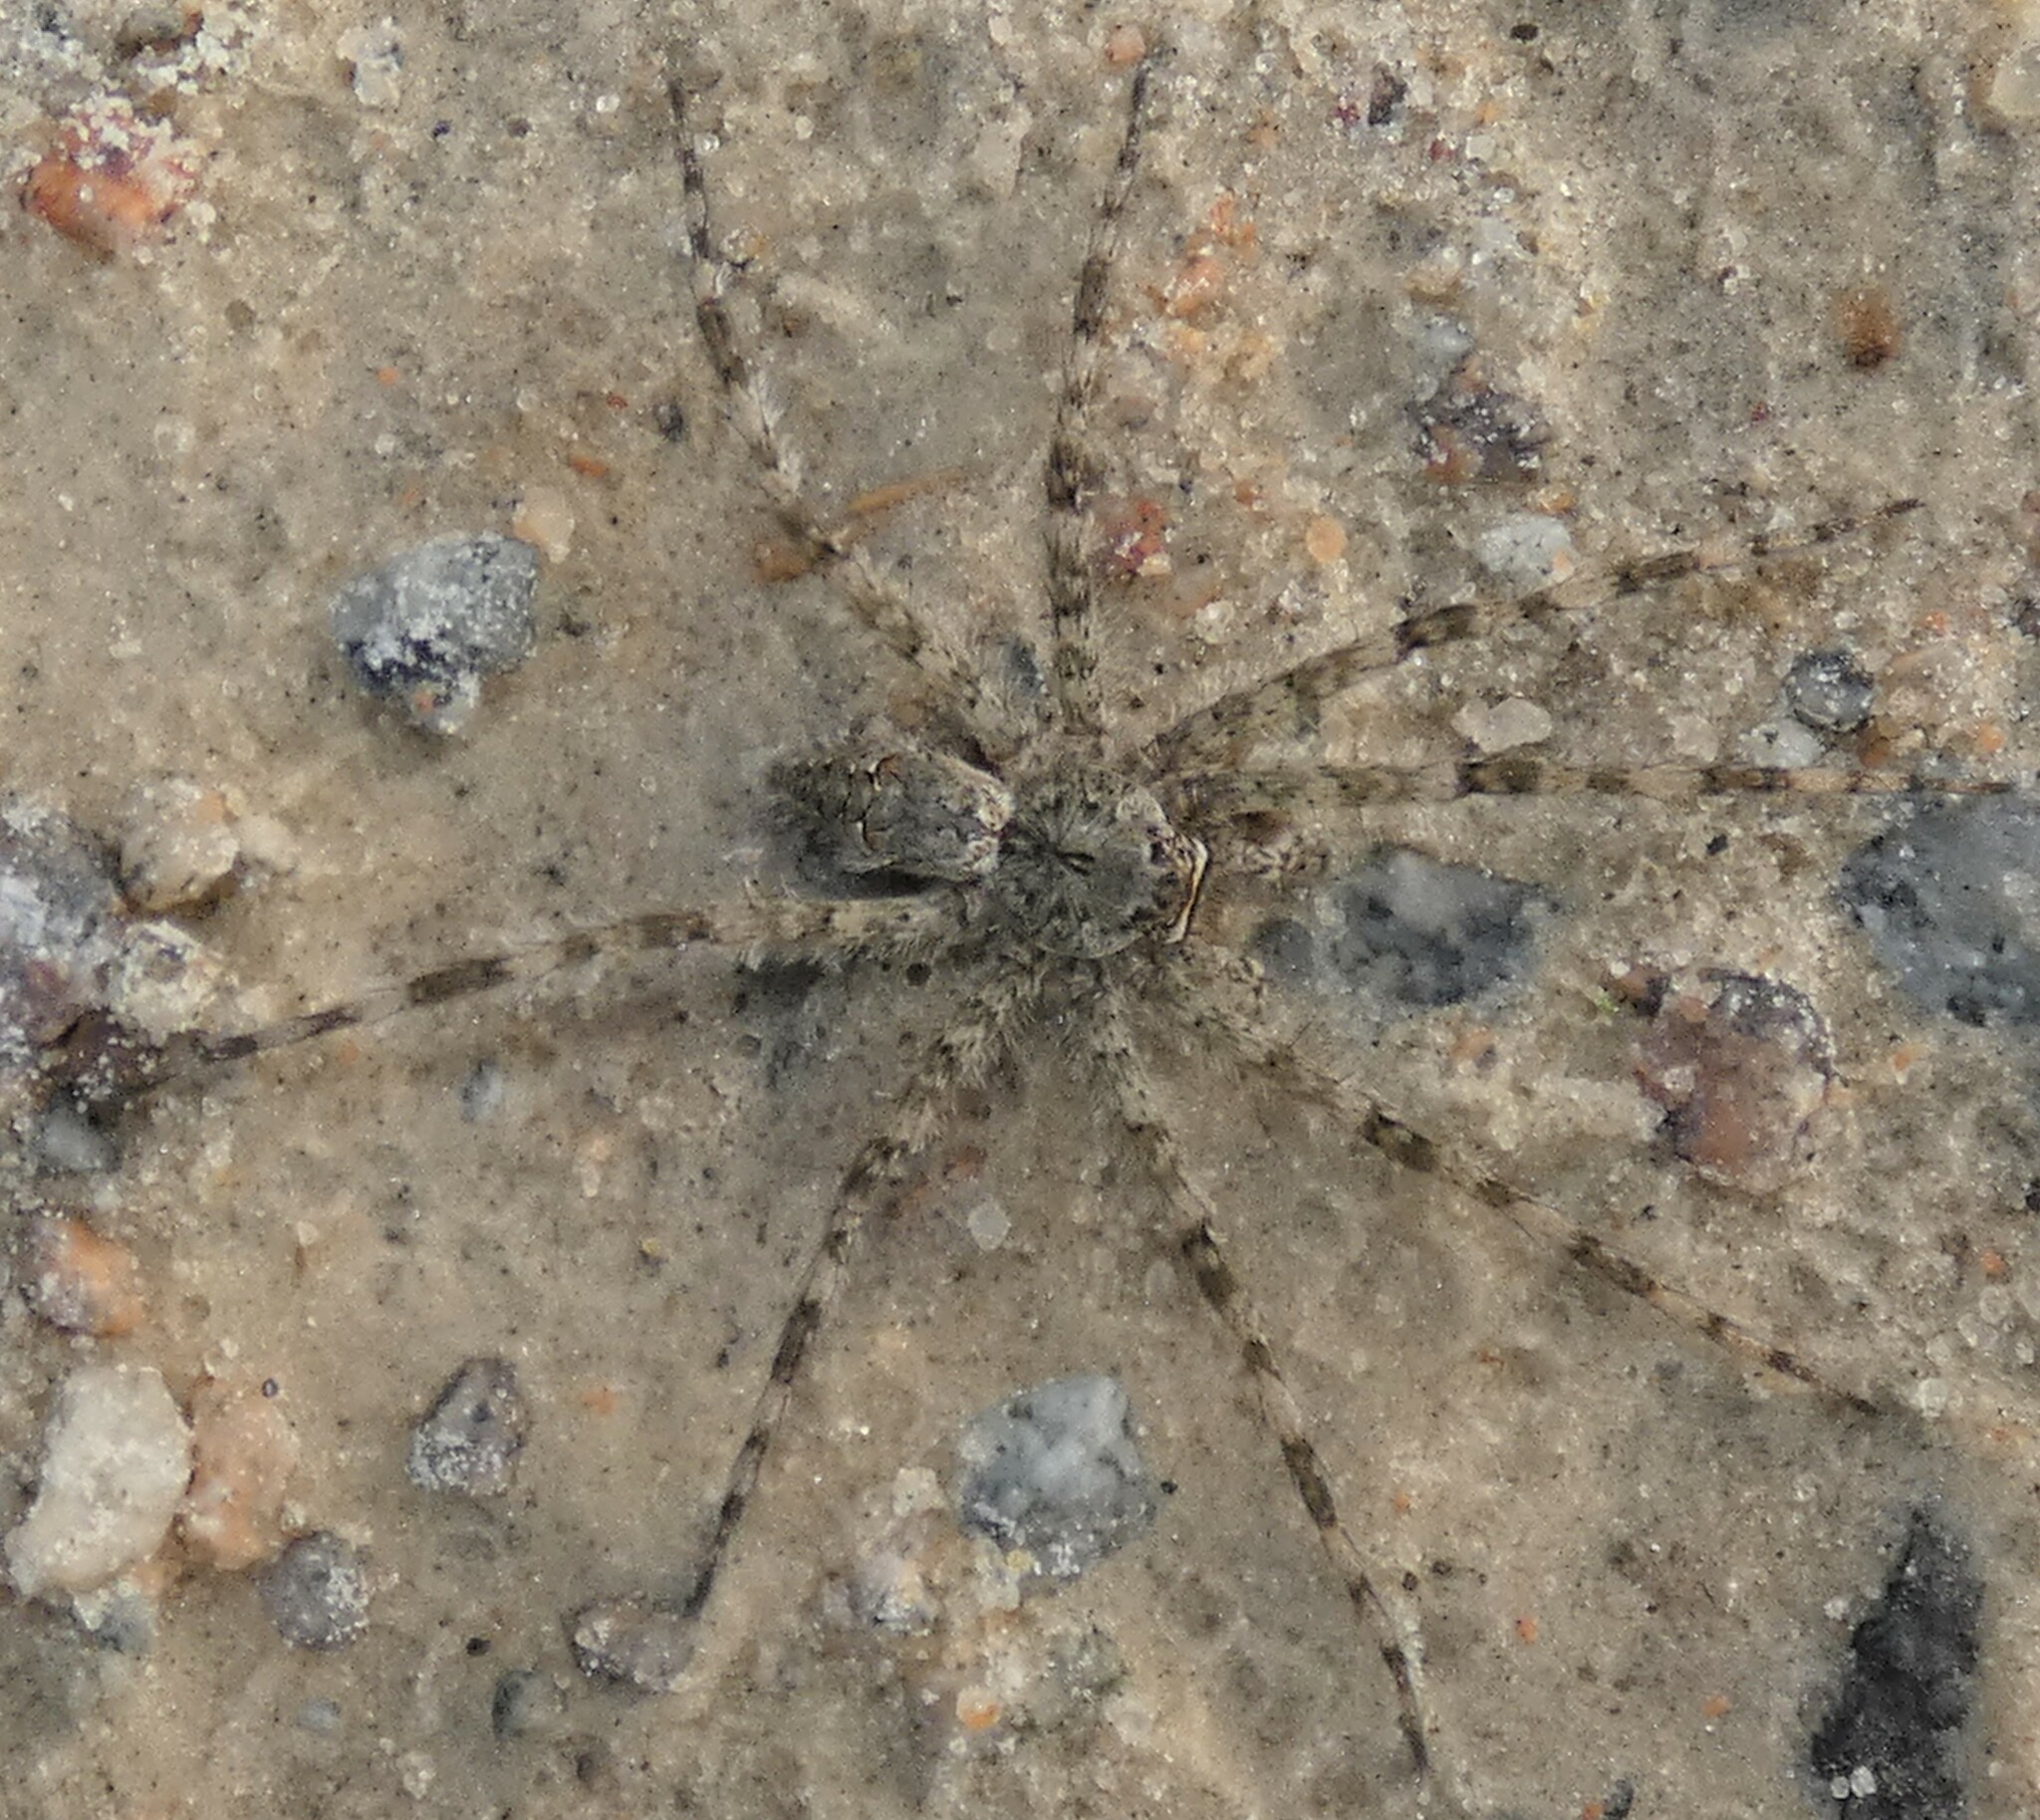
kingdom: Animalia
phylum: Arthropoda
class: Arachnida
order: Araneae
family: Pisauridae
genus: Dolomedes
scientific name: Dolomedes albineus
